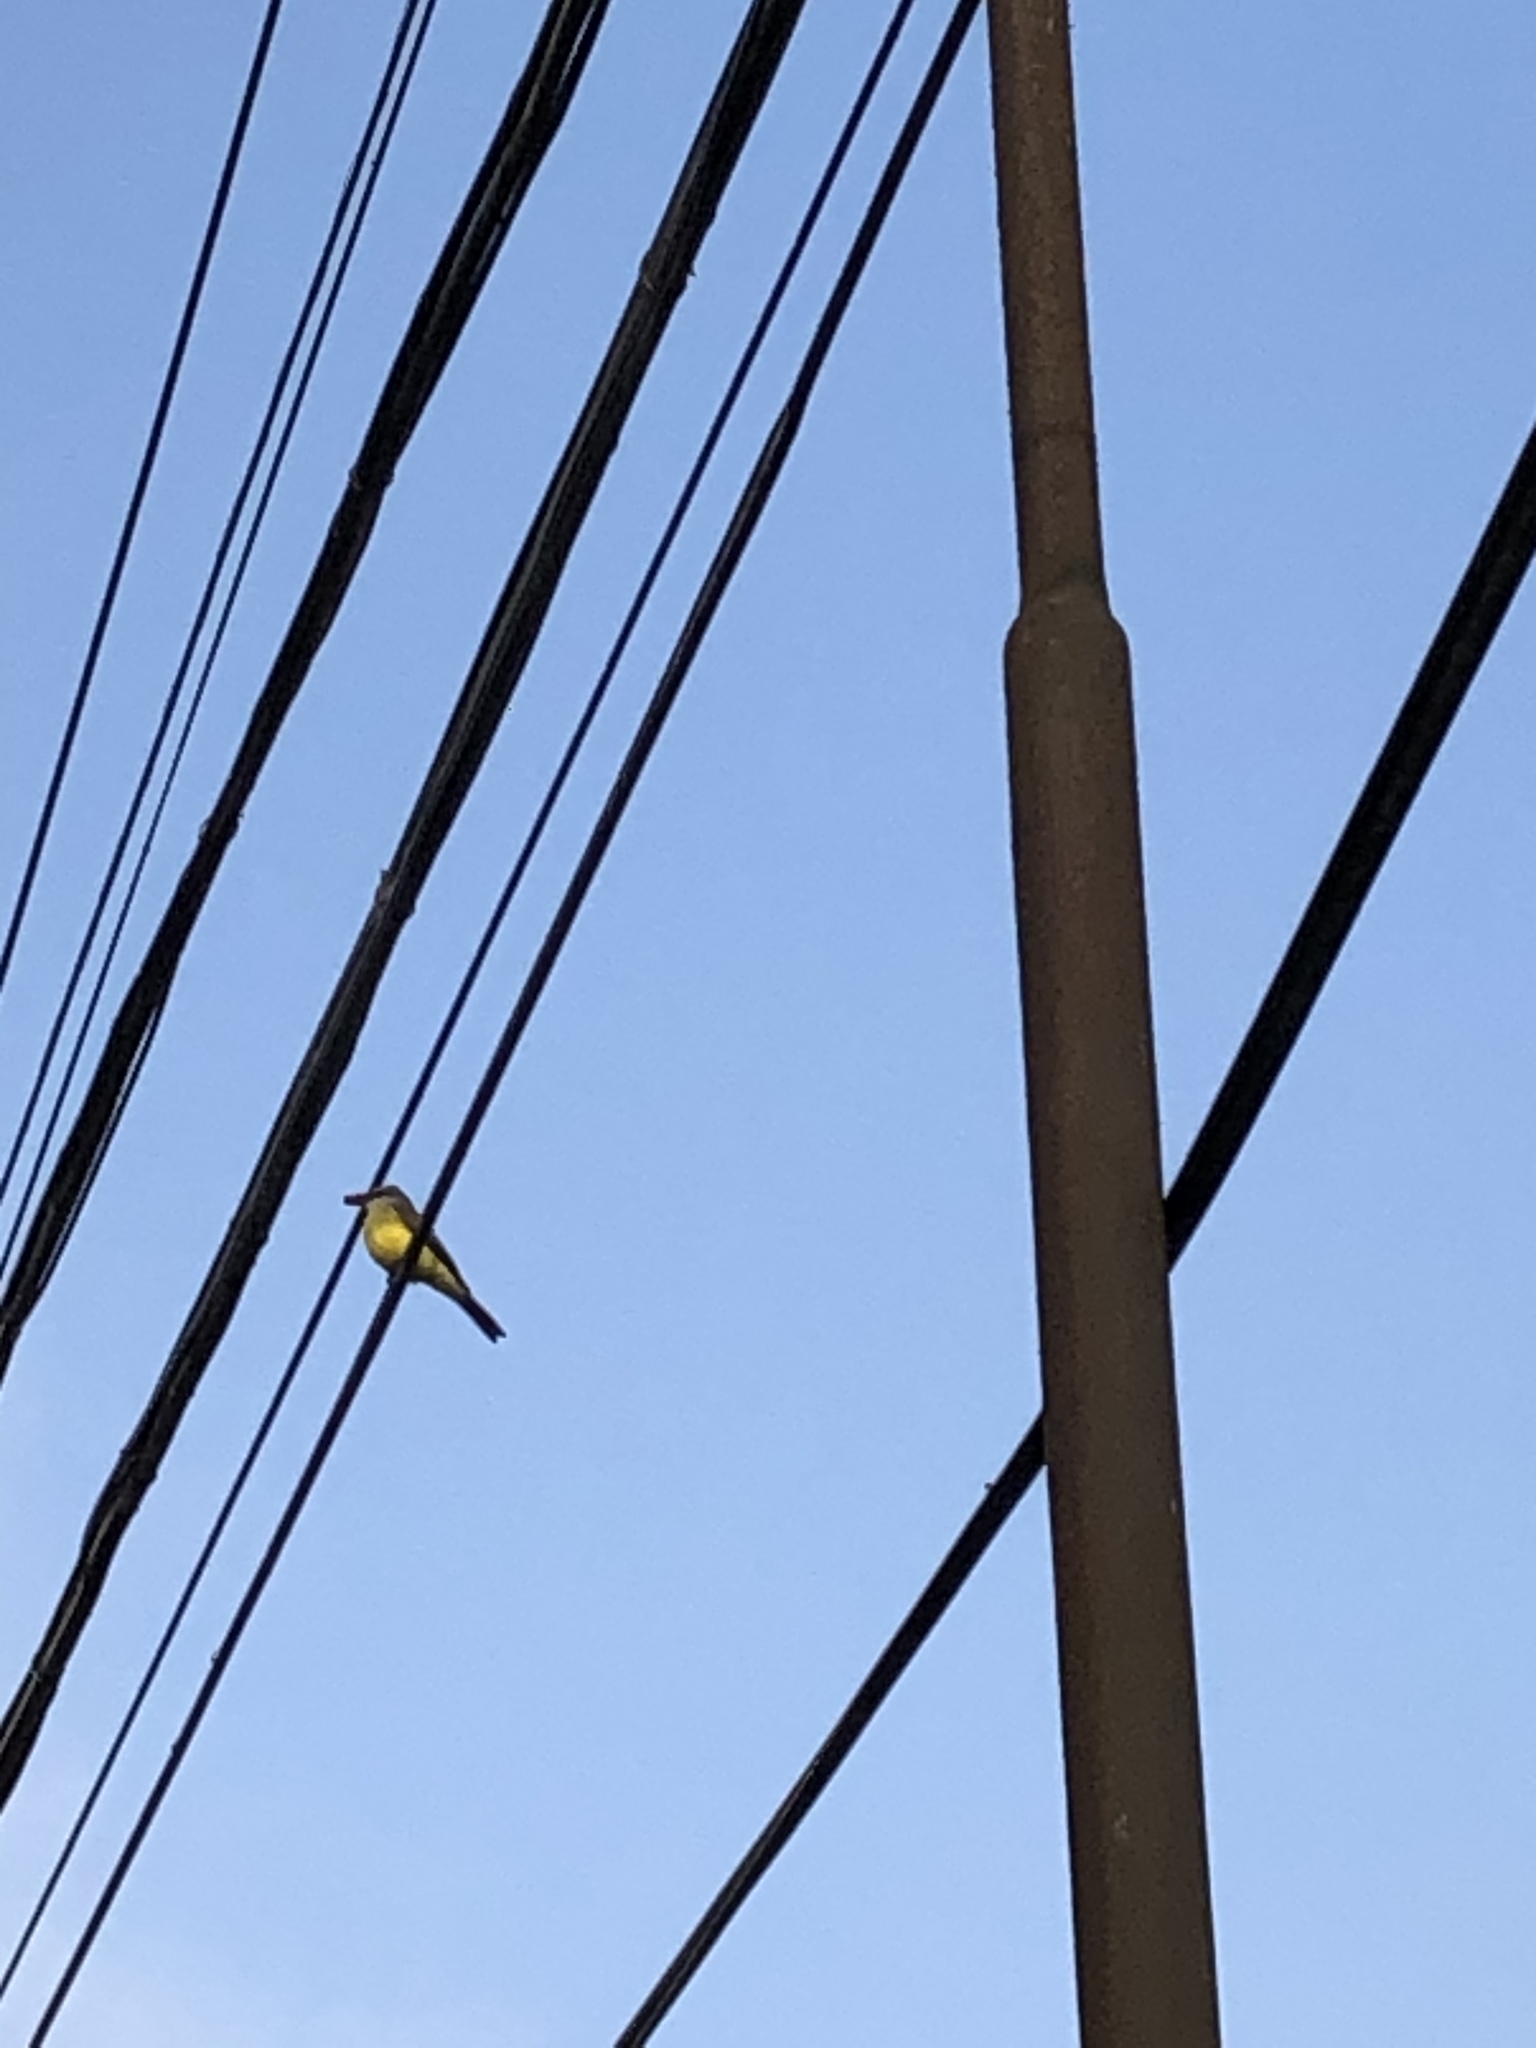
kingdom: Animalia
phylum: Chordata
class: Aves
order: Passeriformes
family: Tyrannidae
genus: Tyrannus
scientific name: Tyrannus melancholicus
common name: Tropical kingbird
